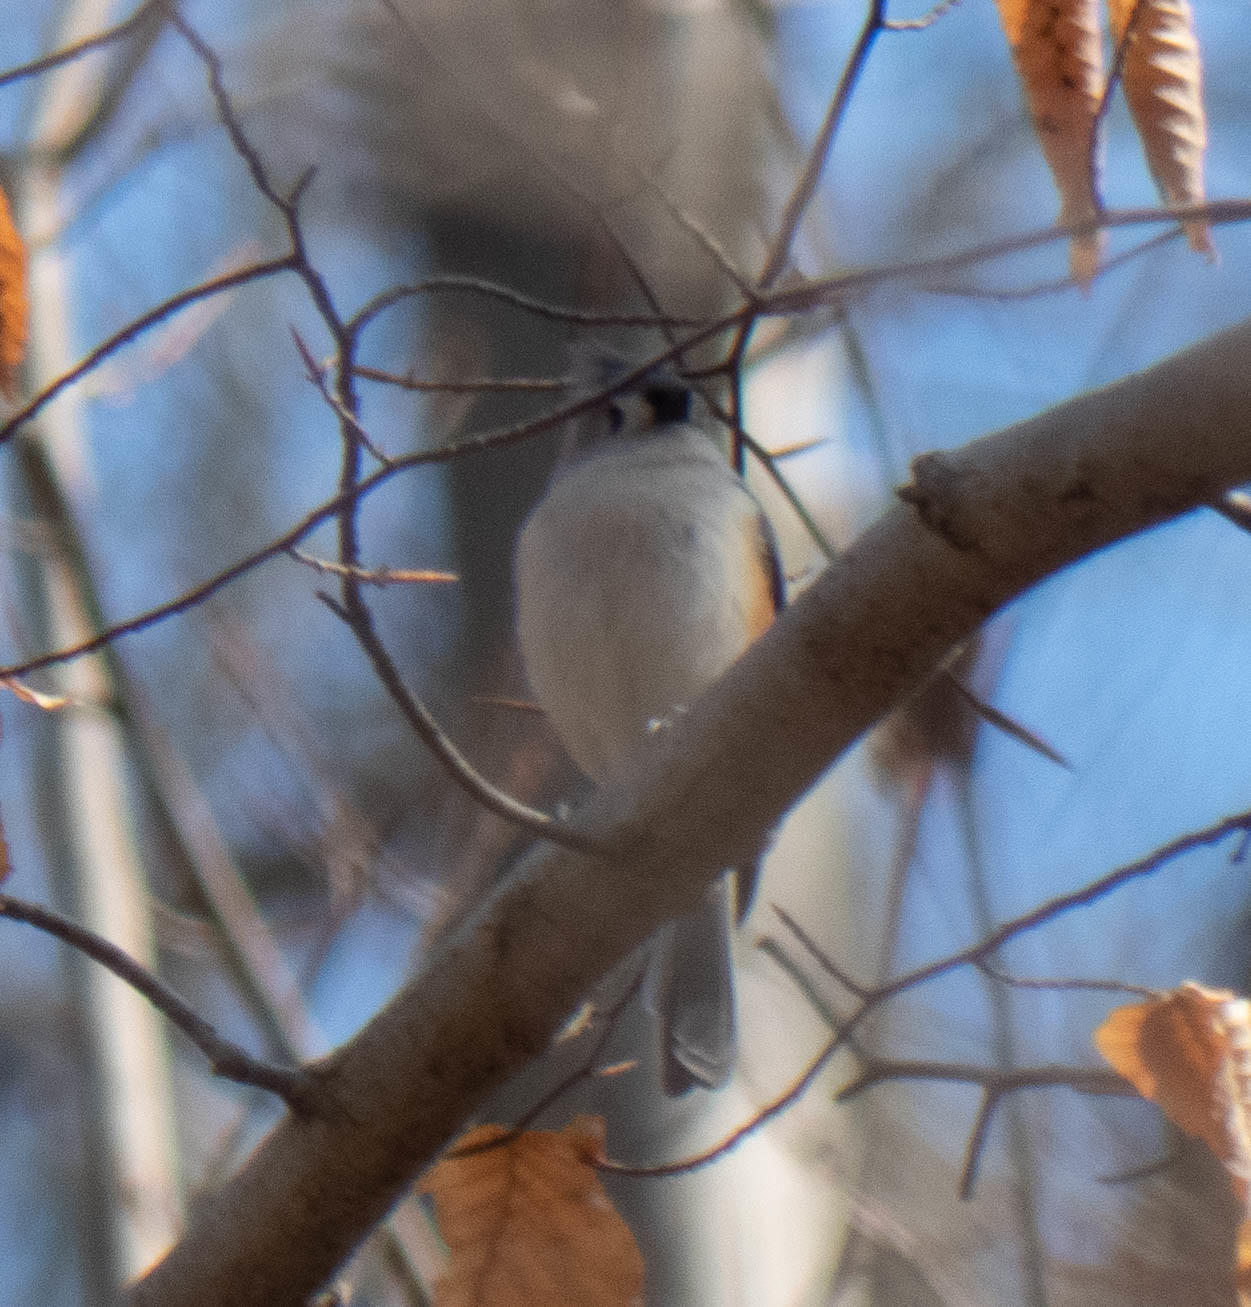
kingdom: Animalia
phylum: Chordata
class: Aves
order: Passeriformes
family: Paridae
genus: Baeolophus
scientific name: Baeolophus bicolor
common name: Tufted titmouse
